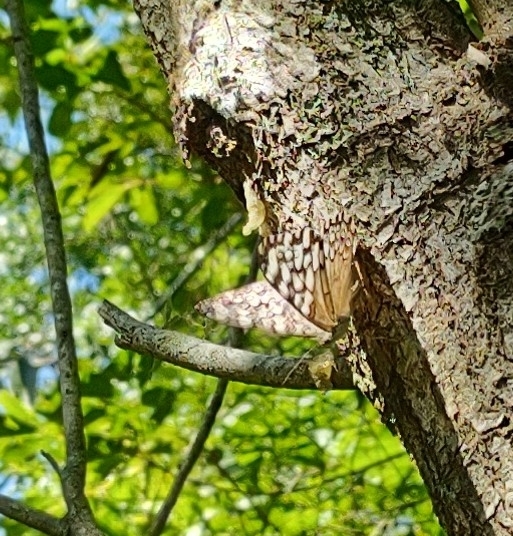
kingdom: Animalia
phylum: Arthropoda
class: Insecta
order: Lepidoptera
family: Nymphalidae
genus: Hamadryas
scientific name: Hamadryas epinome
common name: Epinome cracker
